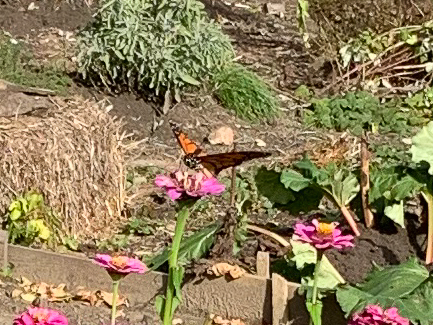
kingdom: Animalia
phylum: Arthropoda
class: Insecta
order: Lepidoptera
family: Nymphalidae
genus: Danaus
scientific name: Danaus plexippus
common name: Monarch
